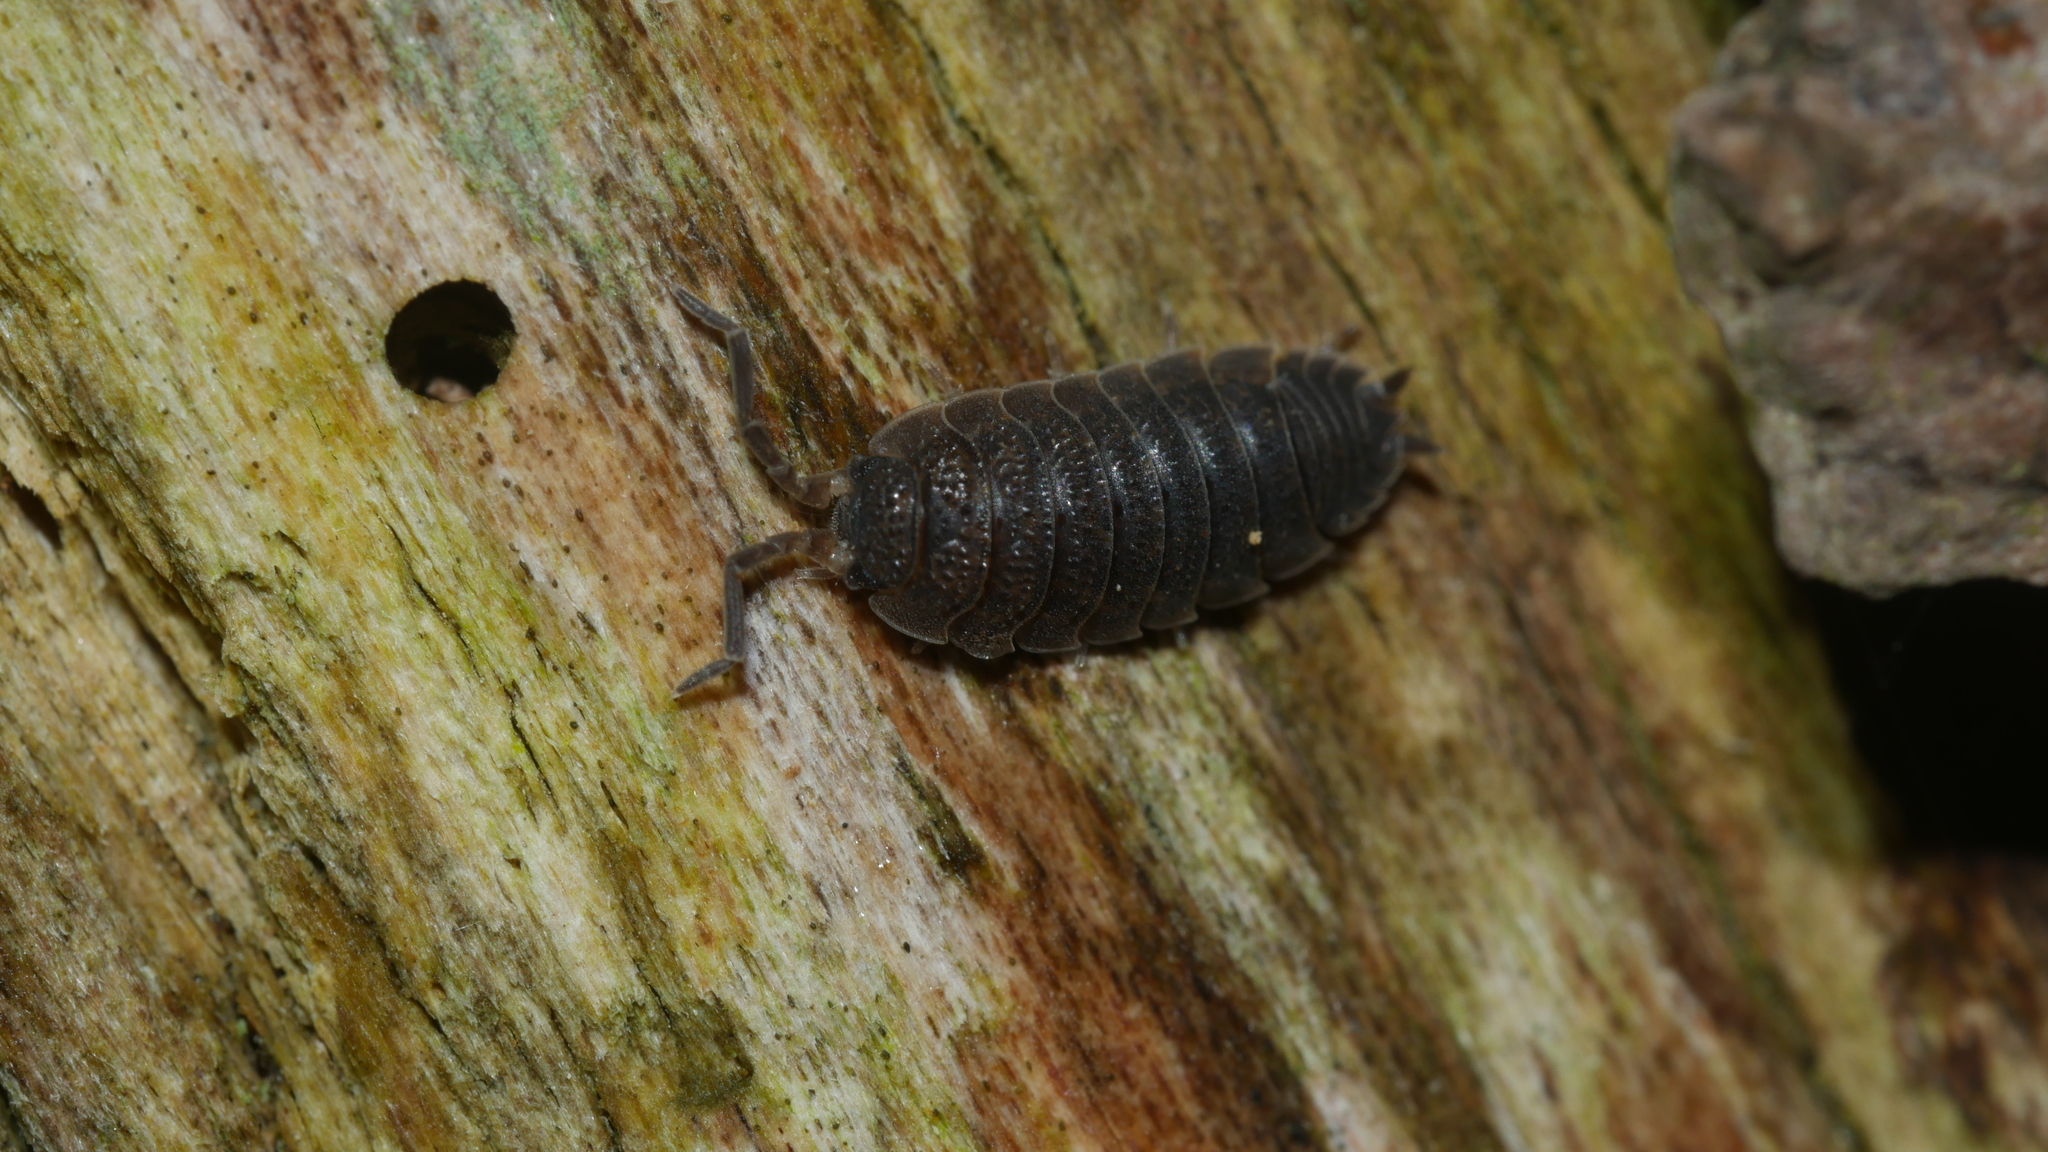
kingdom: Animalia
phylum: Arthropoda
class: Malacostraca
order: Isopoda
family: Porcellionidae
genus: Porcellio
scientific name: Porcellio scaber
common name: Common rough woodlouse
